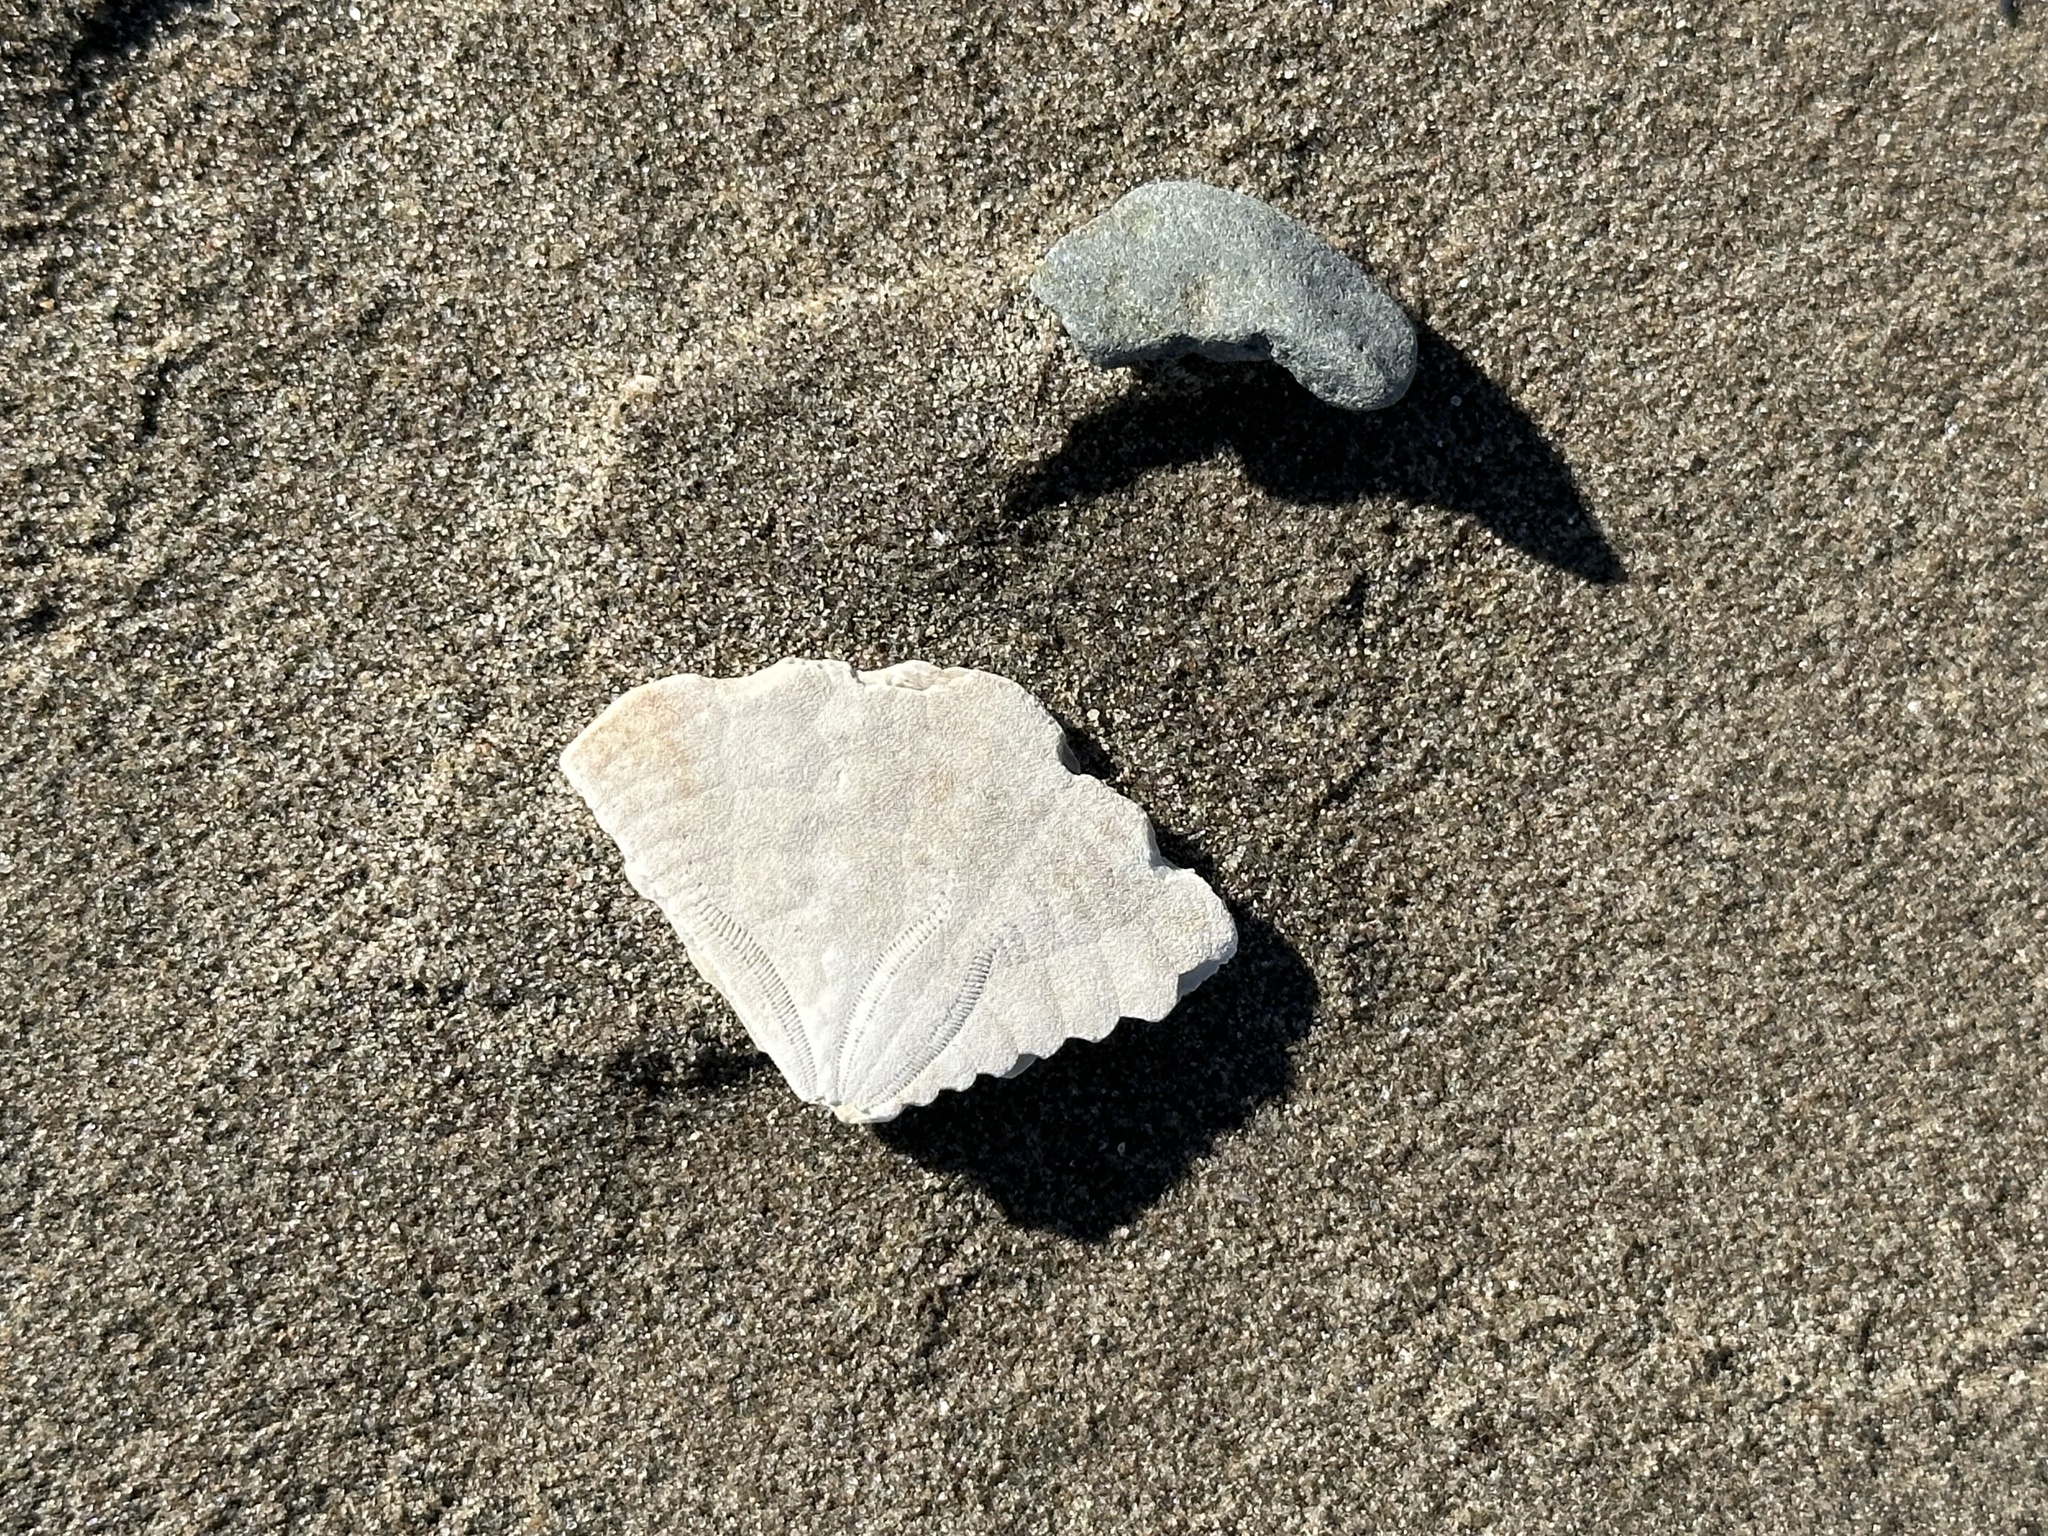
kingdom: Animalia
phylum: Echinodermata
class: Echinoidea
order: Echinolampadacea
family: Echinarachniidae
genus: Echinarachnius
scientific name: Echinarachnius parma
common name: Common sand dollar
